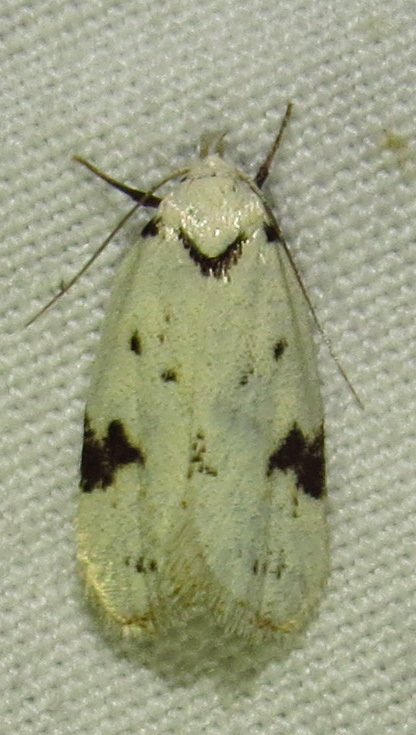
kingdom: Animalia
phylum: Arthropoda
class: Insecta
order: Lepidoptera
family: Oecophoridae
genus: Inga
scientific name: Inga sparsiciliella
